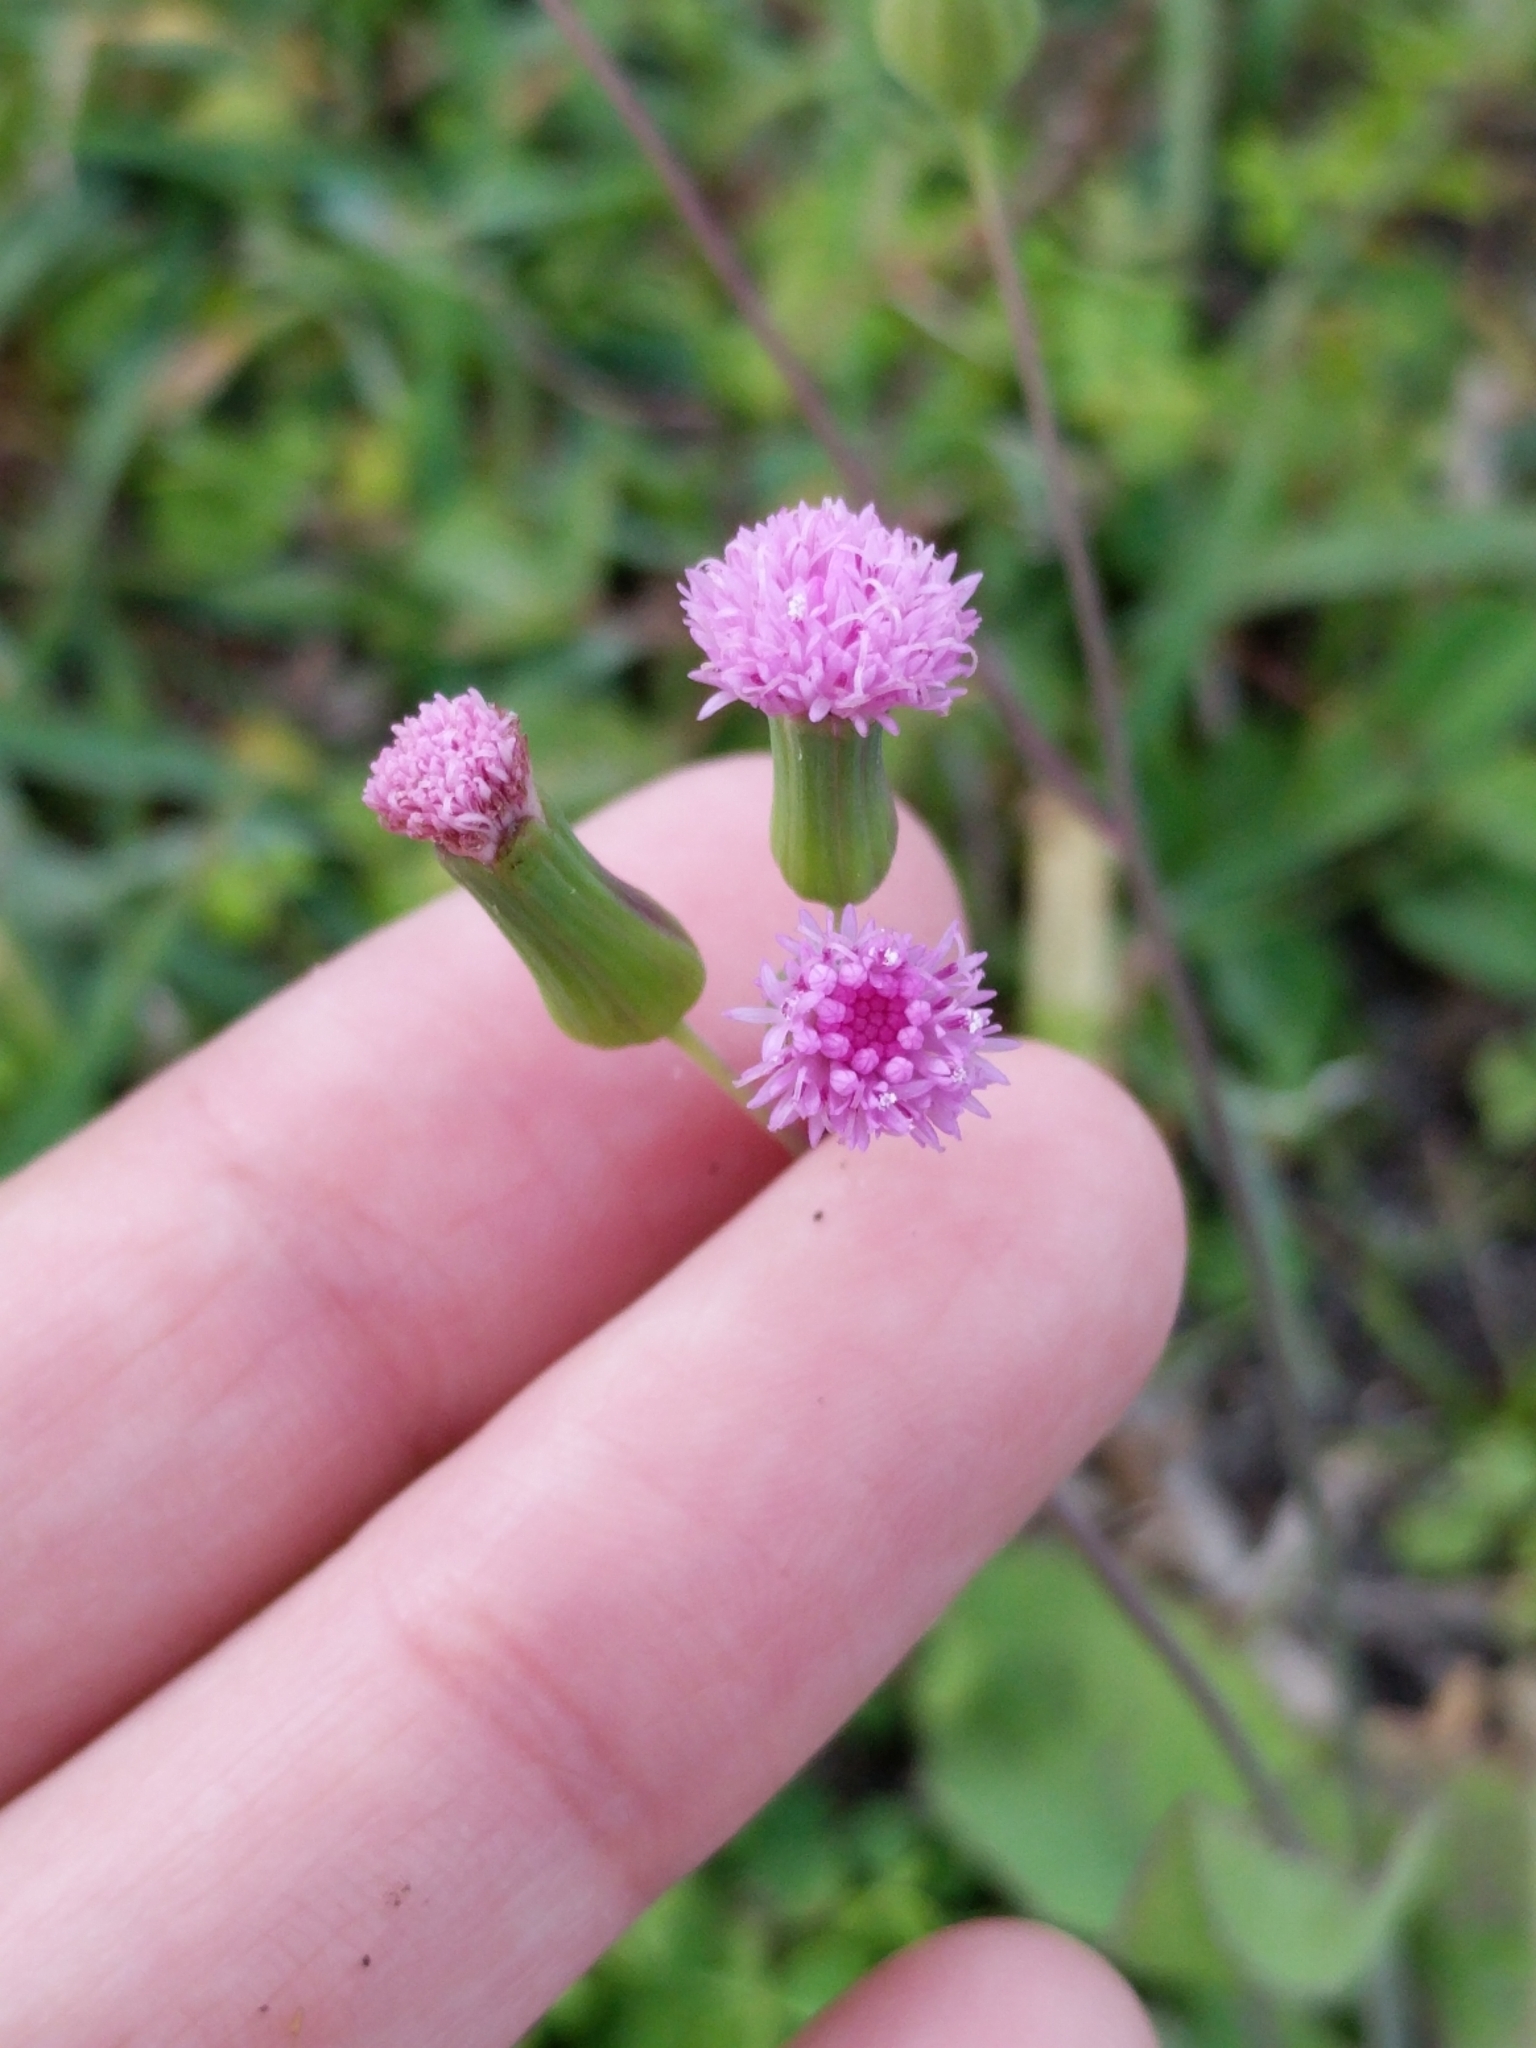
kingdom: Plantae
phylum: Tracheophyta
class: Magnoliopsida
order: Asterales
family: Asteraceae
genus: Emilia
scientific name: Emilia sonchifolia
